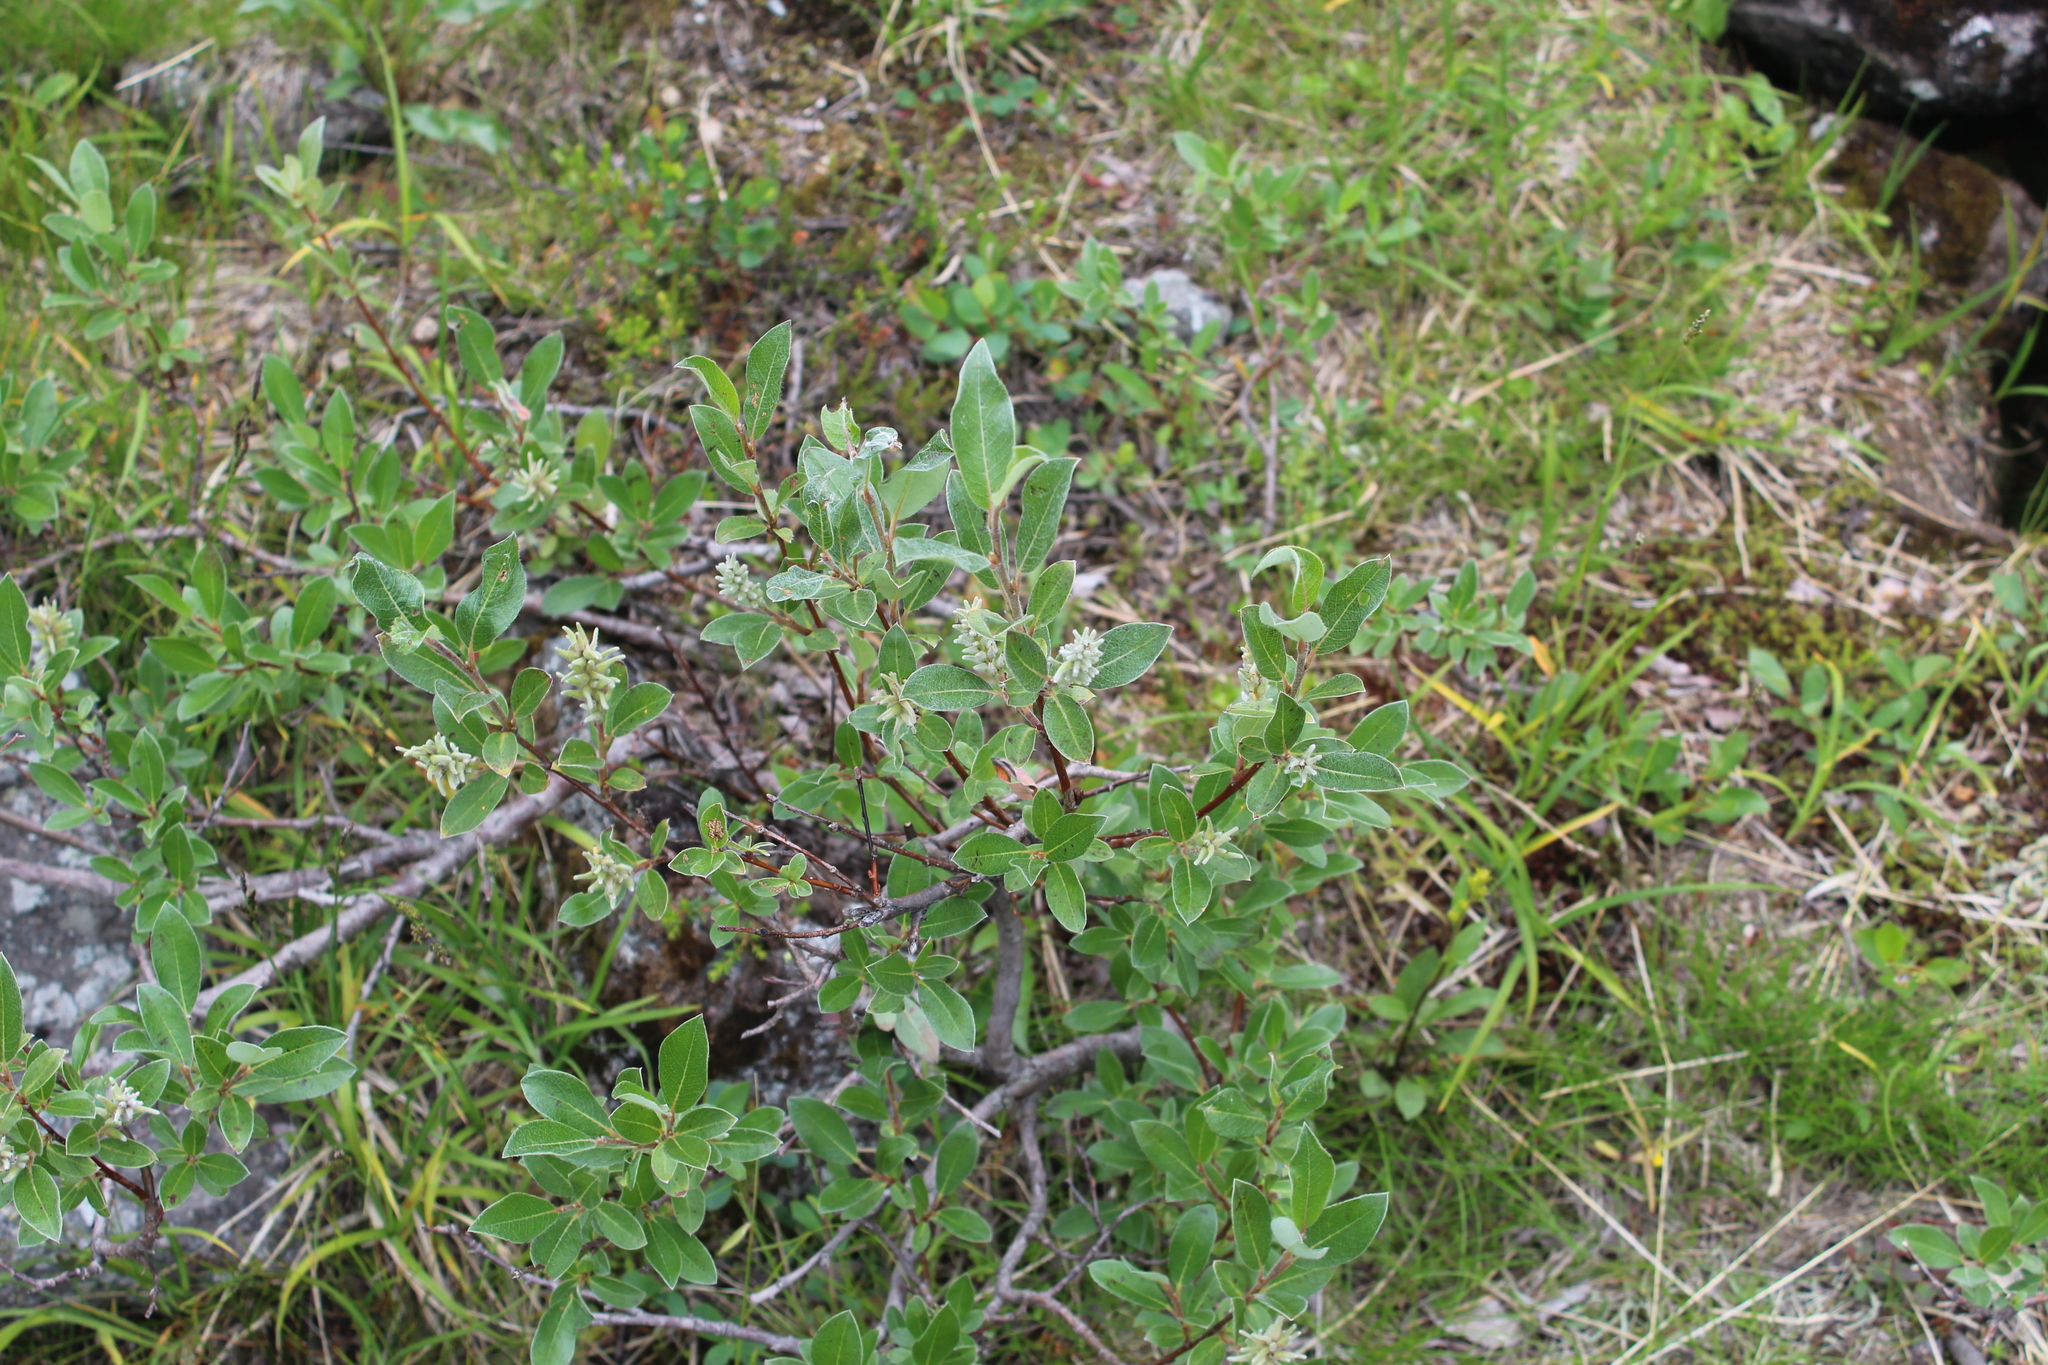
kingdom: Plantae
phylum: Tracheophyta
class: Magnoliopsida
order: Malpighiales
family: Salicaceae
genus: Salix
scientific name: Salix glauca
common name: Glaucous willow
